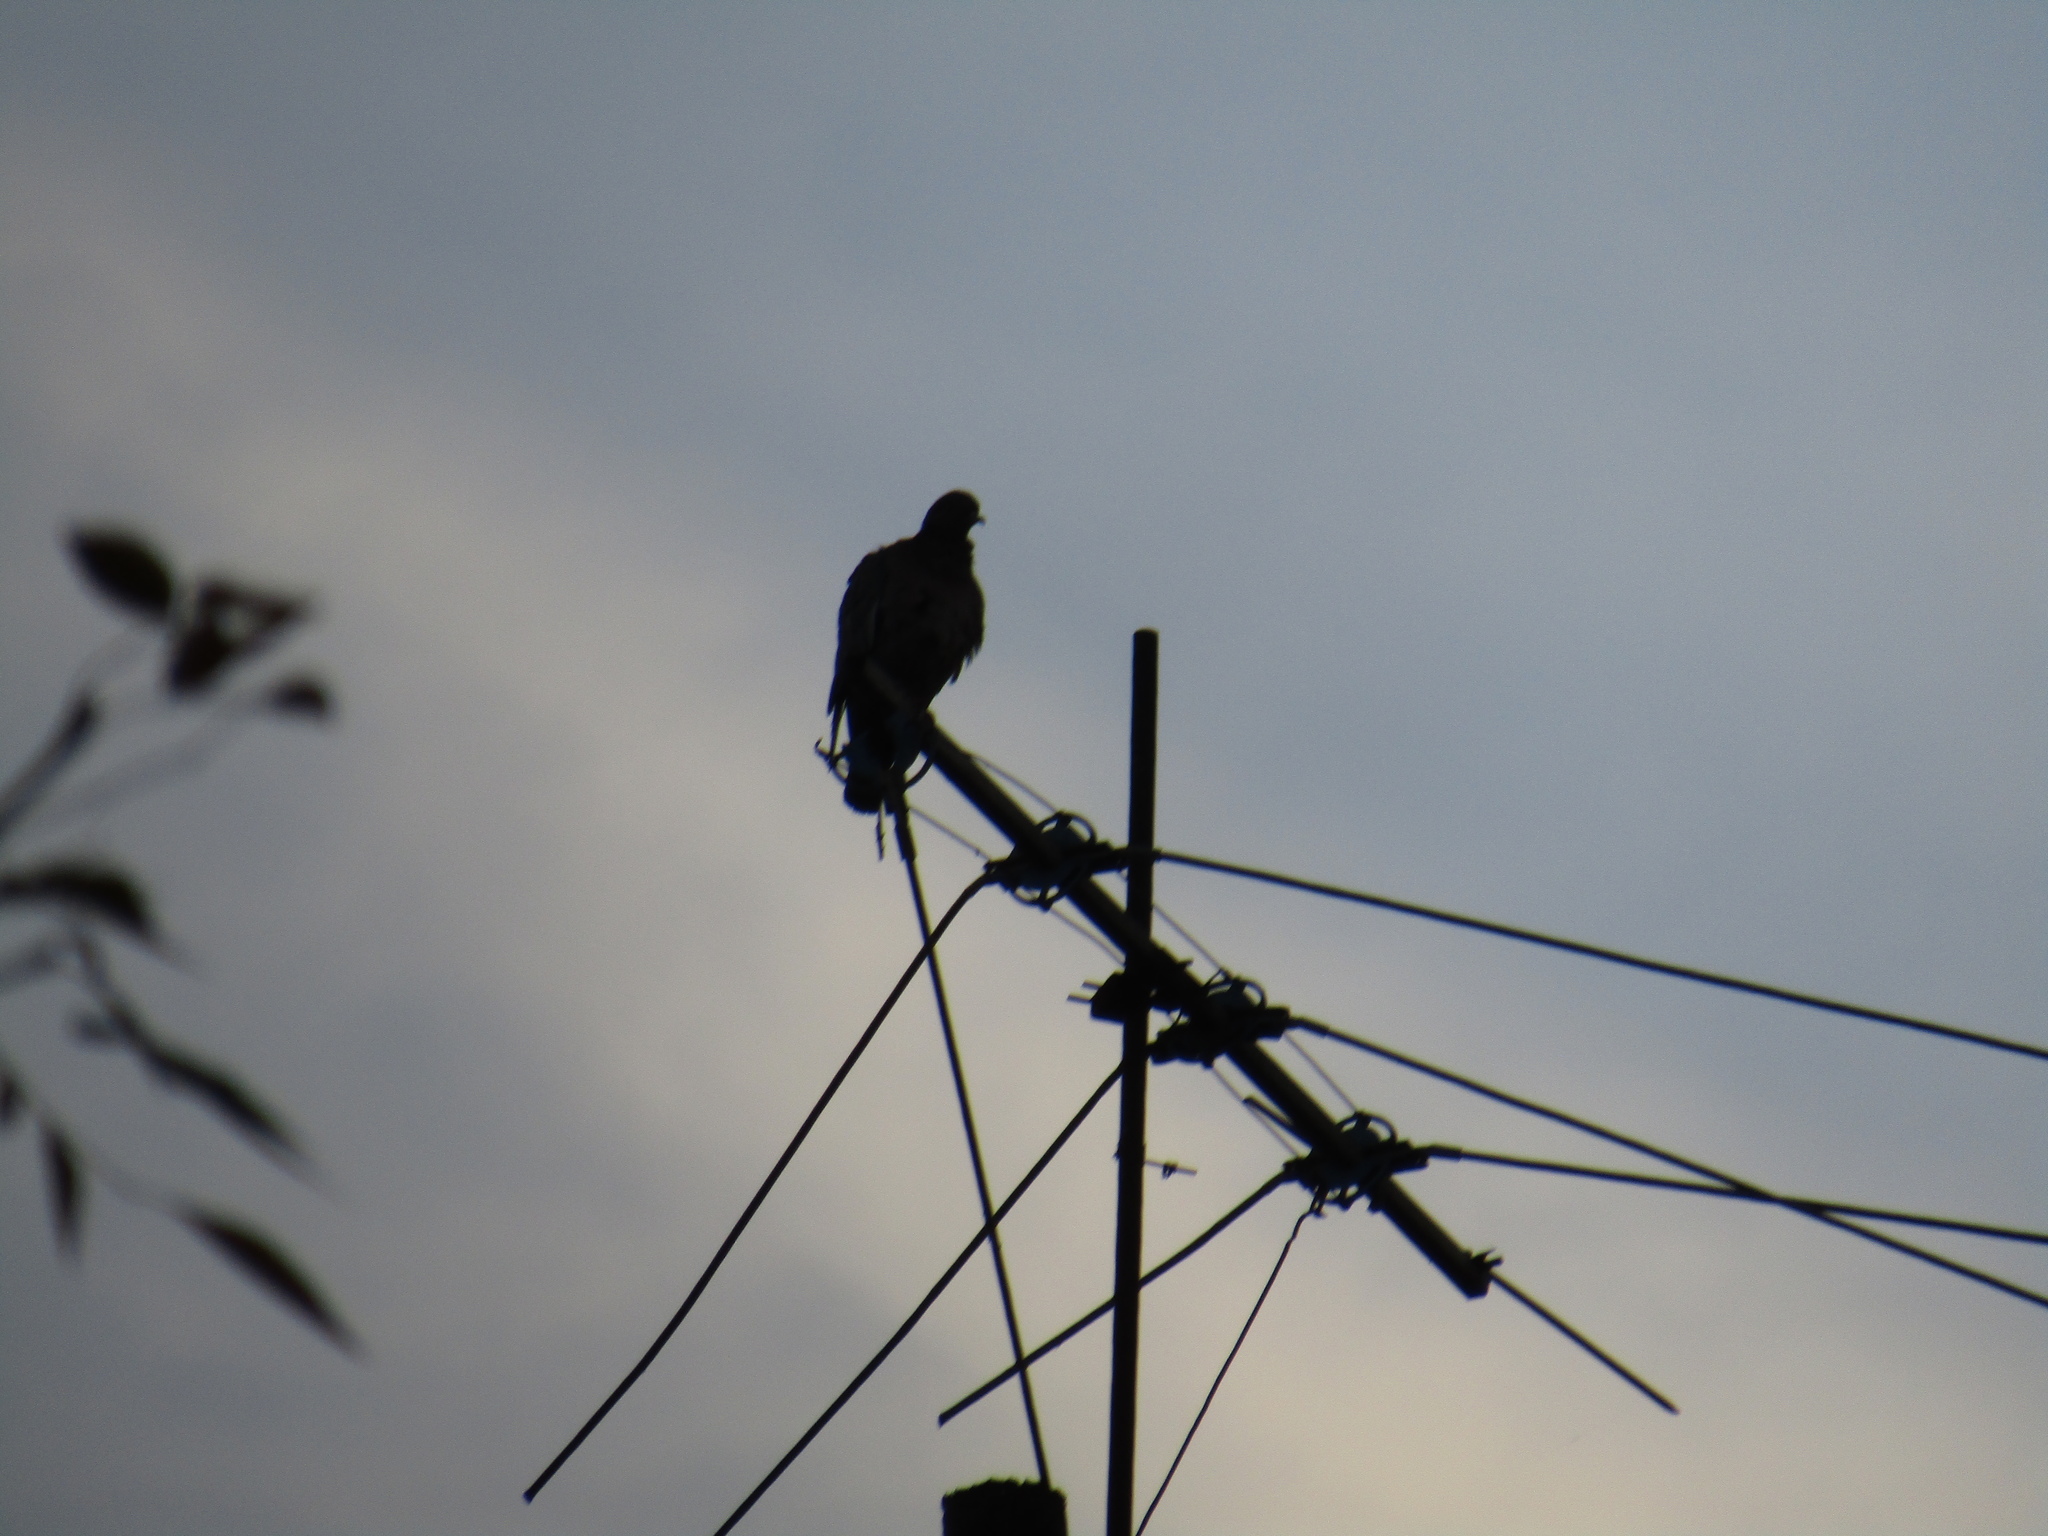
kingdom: Animalia
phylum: Chordata
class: Aves
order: Columbiformes
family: Columbidae
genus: Patagioenas
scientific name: Patagioenas picazuro
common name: Picazuro pigeon
